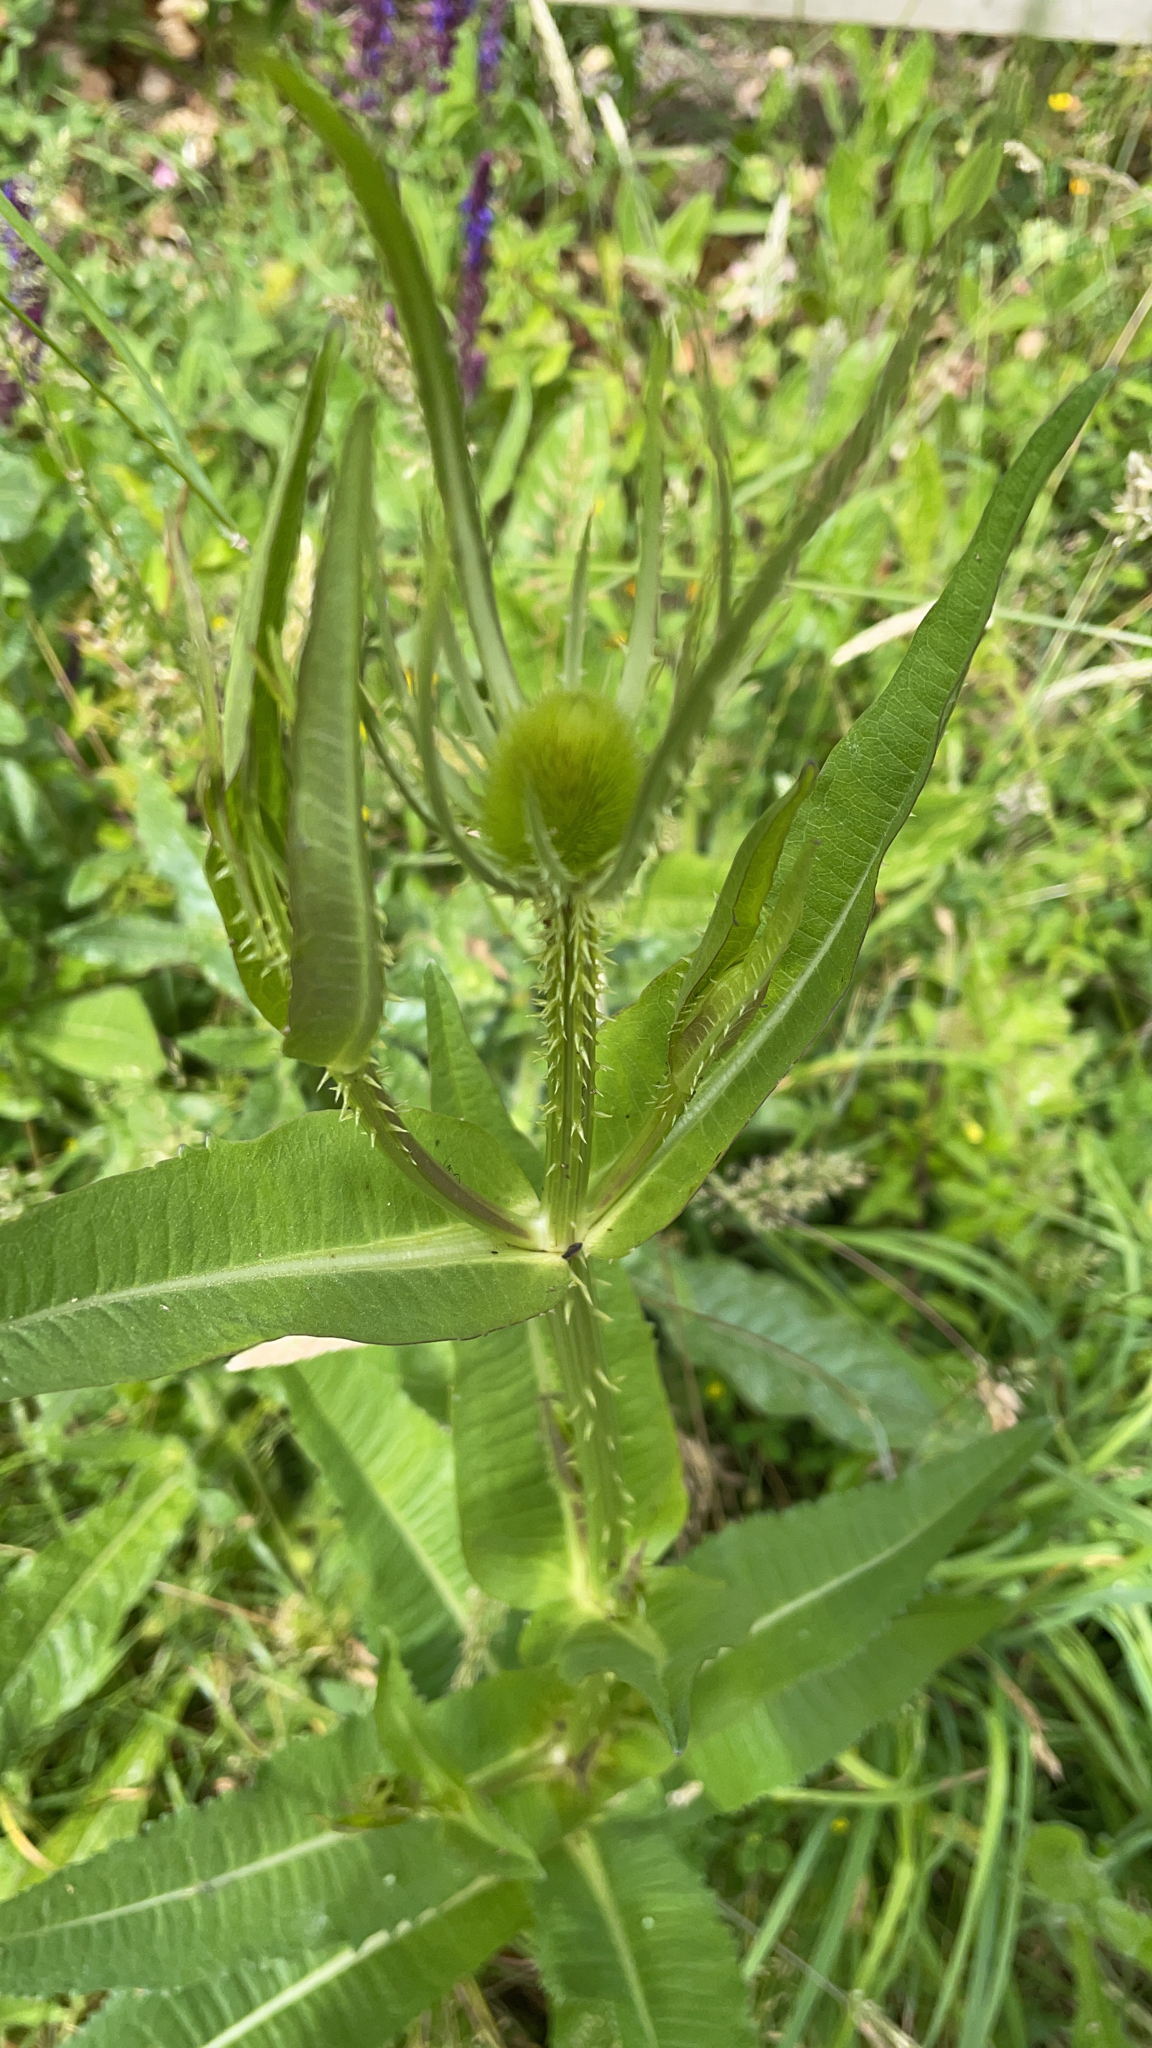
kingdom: Plantae
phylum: Tracheophyta
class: Magnoliopsida
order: Dipsacales
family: Caprifoliaceae
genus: Dipsacus
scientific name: Dipsacus fullonum
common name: Teasel
